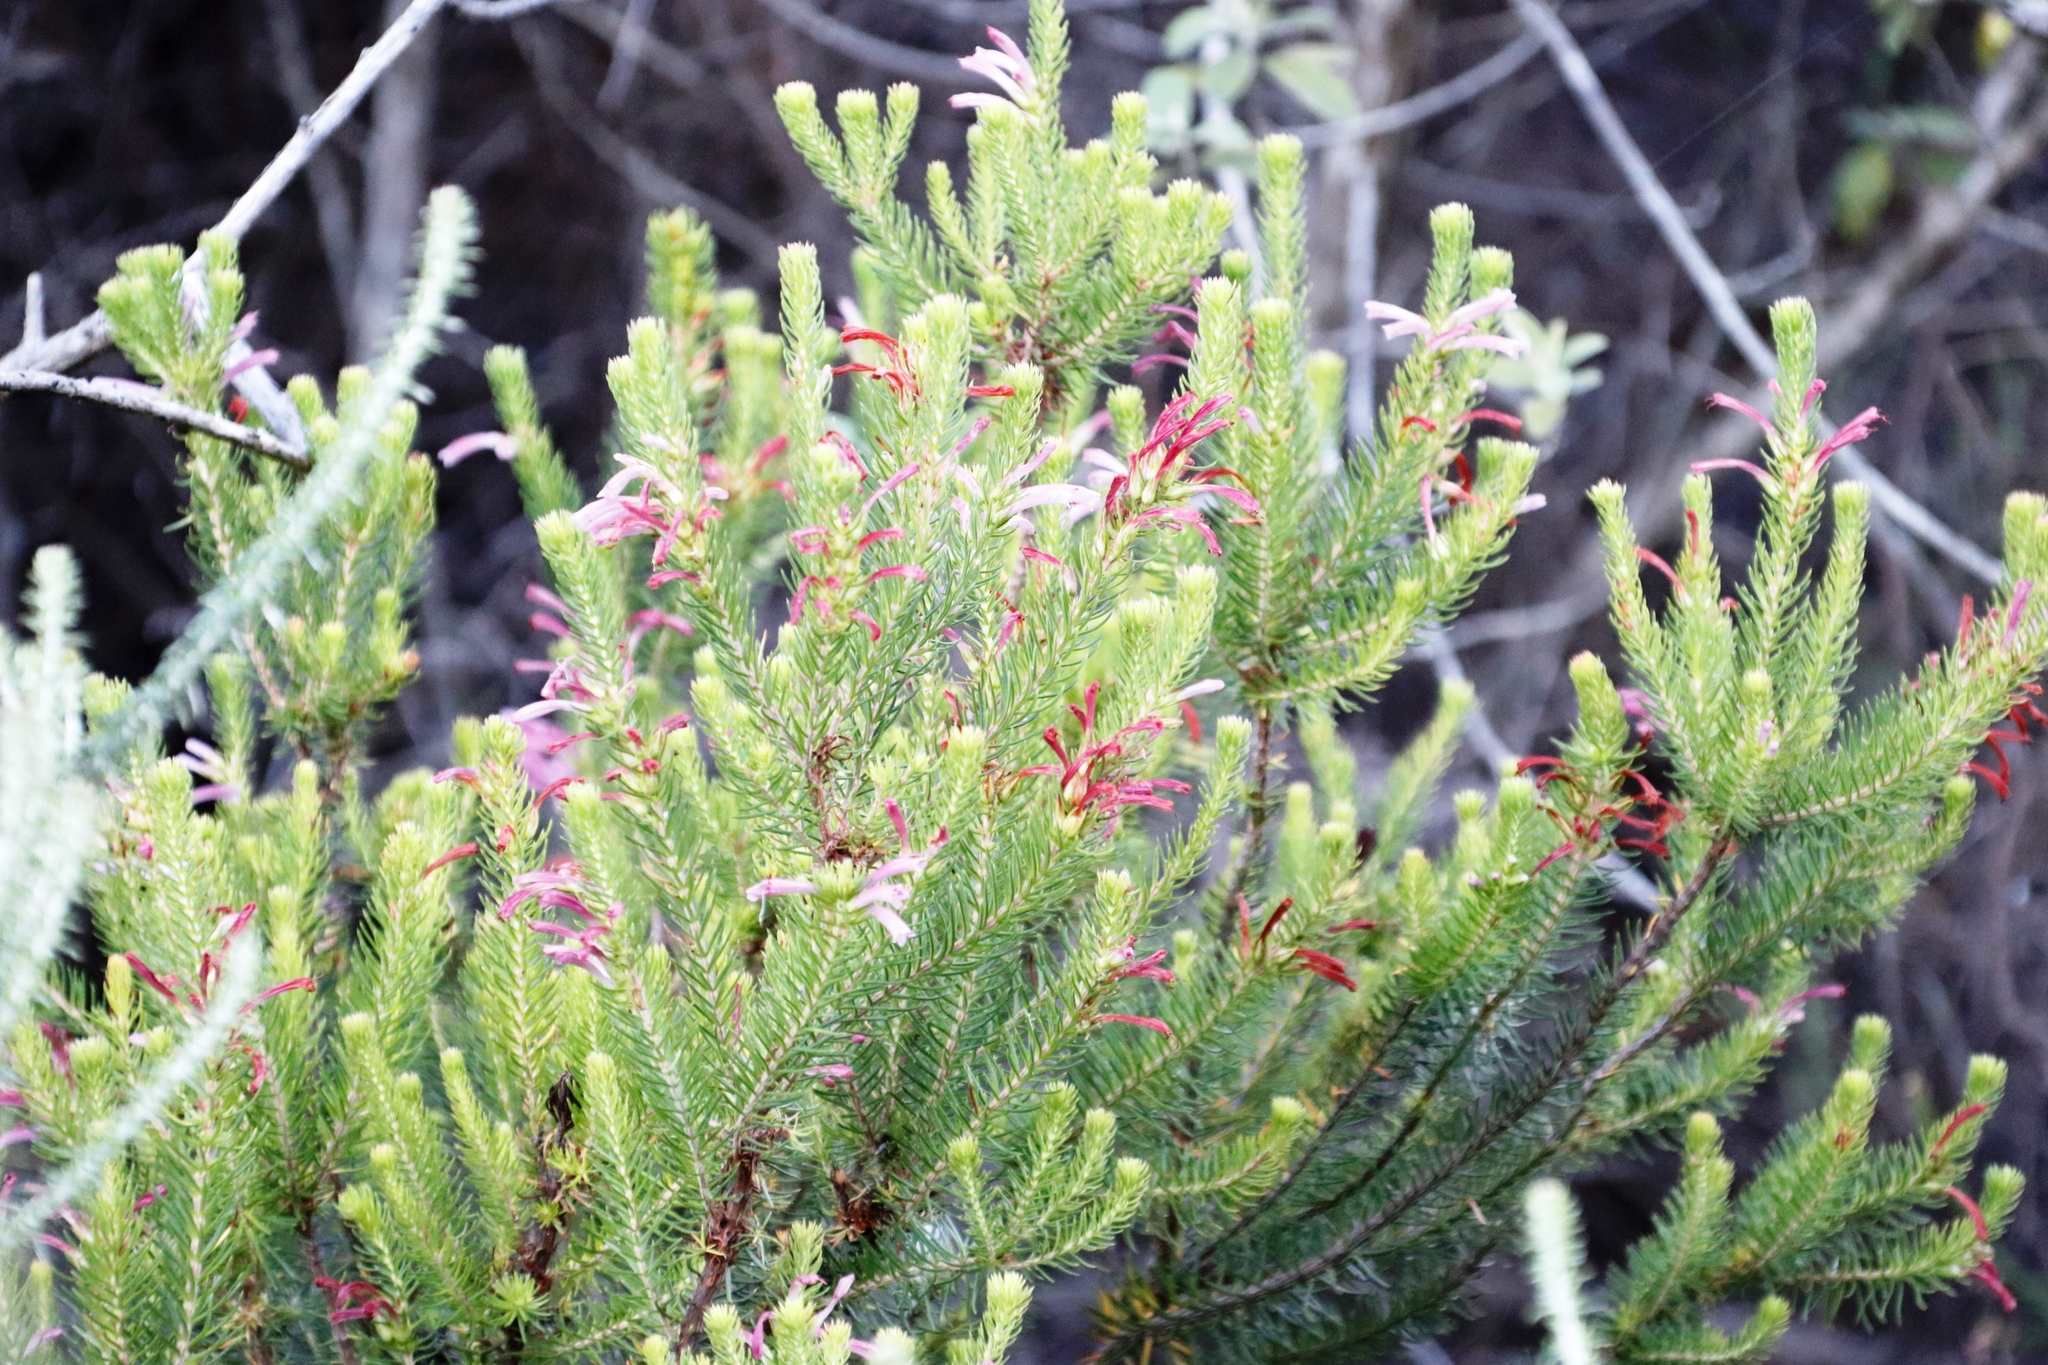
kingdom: Plantae
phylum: Tracheophyta
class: Magnoliopsida
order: Ericales
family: Ericaceae
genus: Erica
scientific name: Erica abietina
